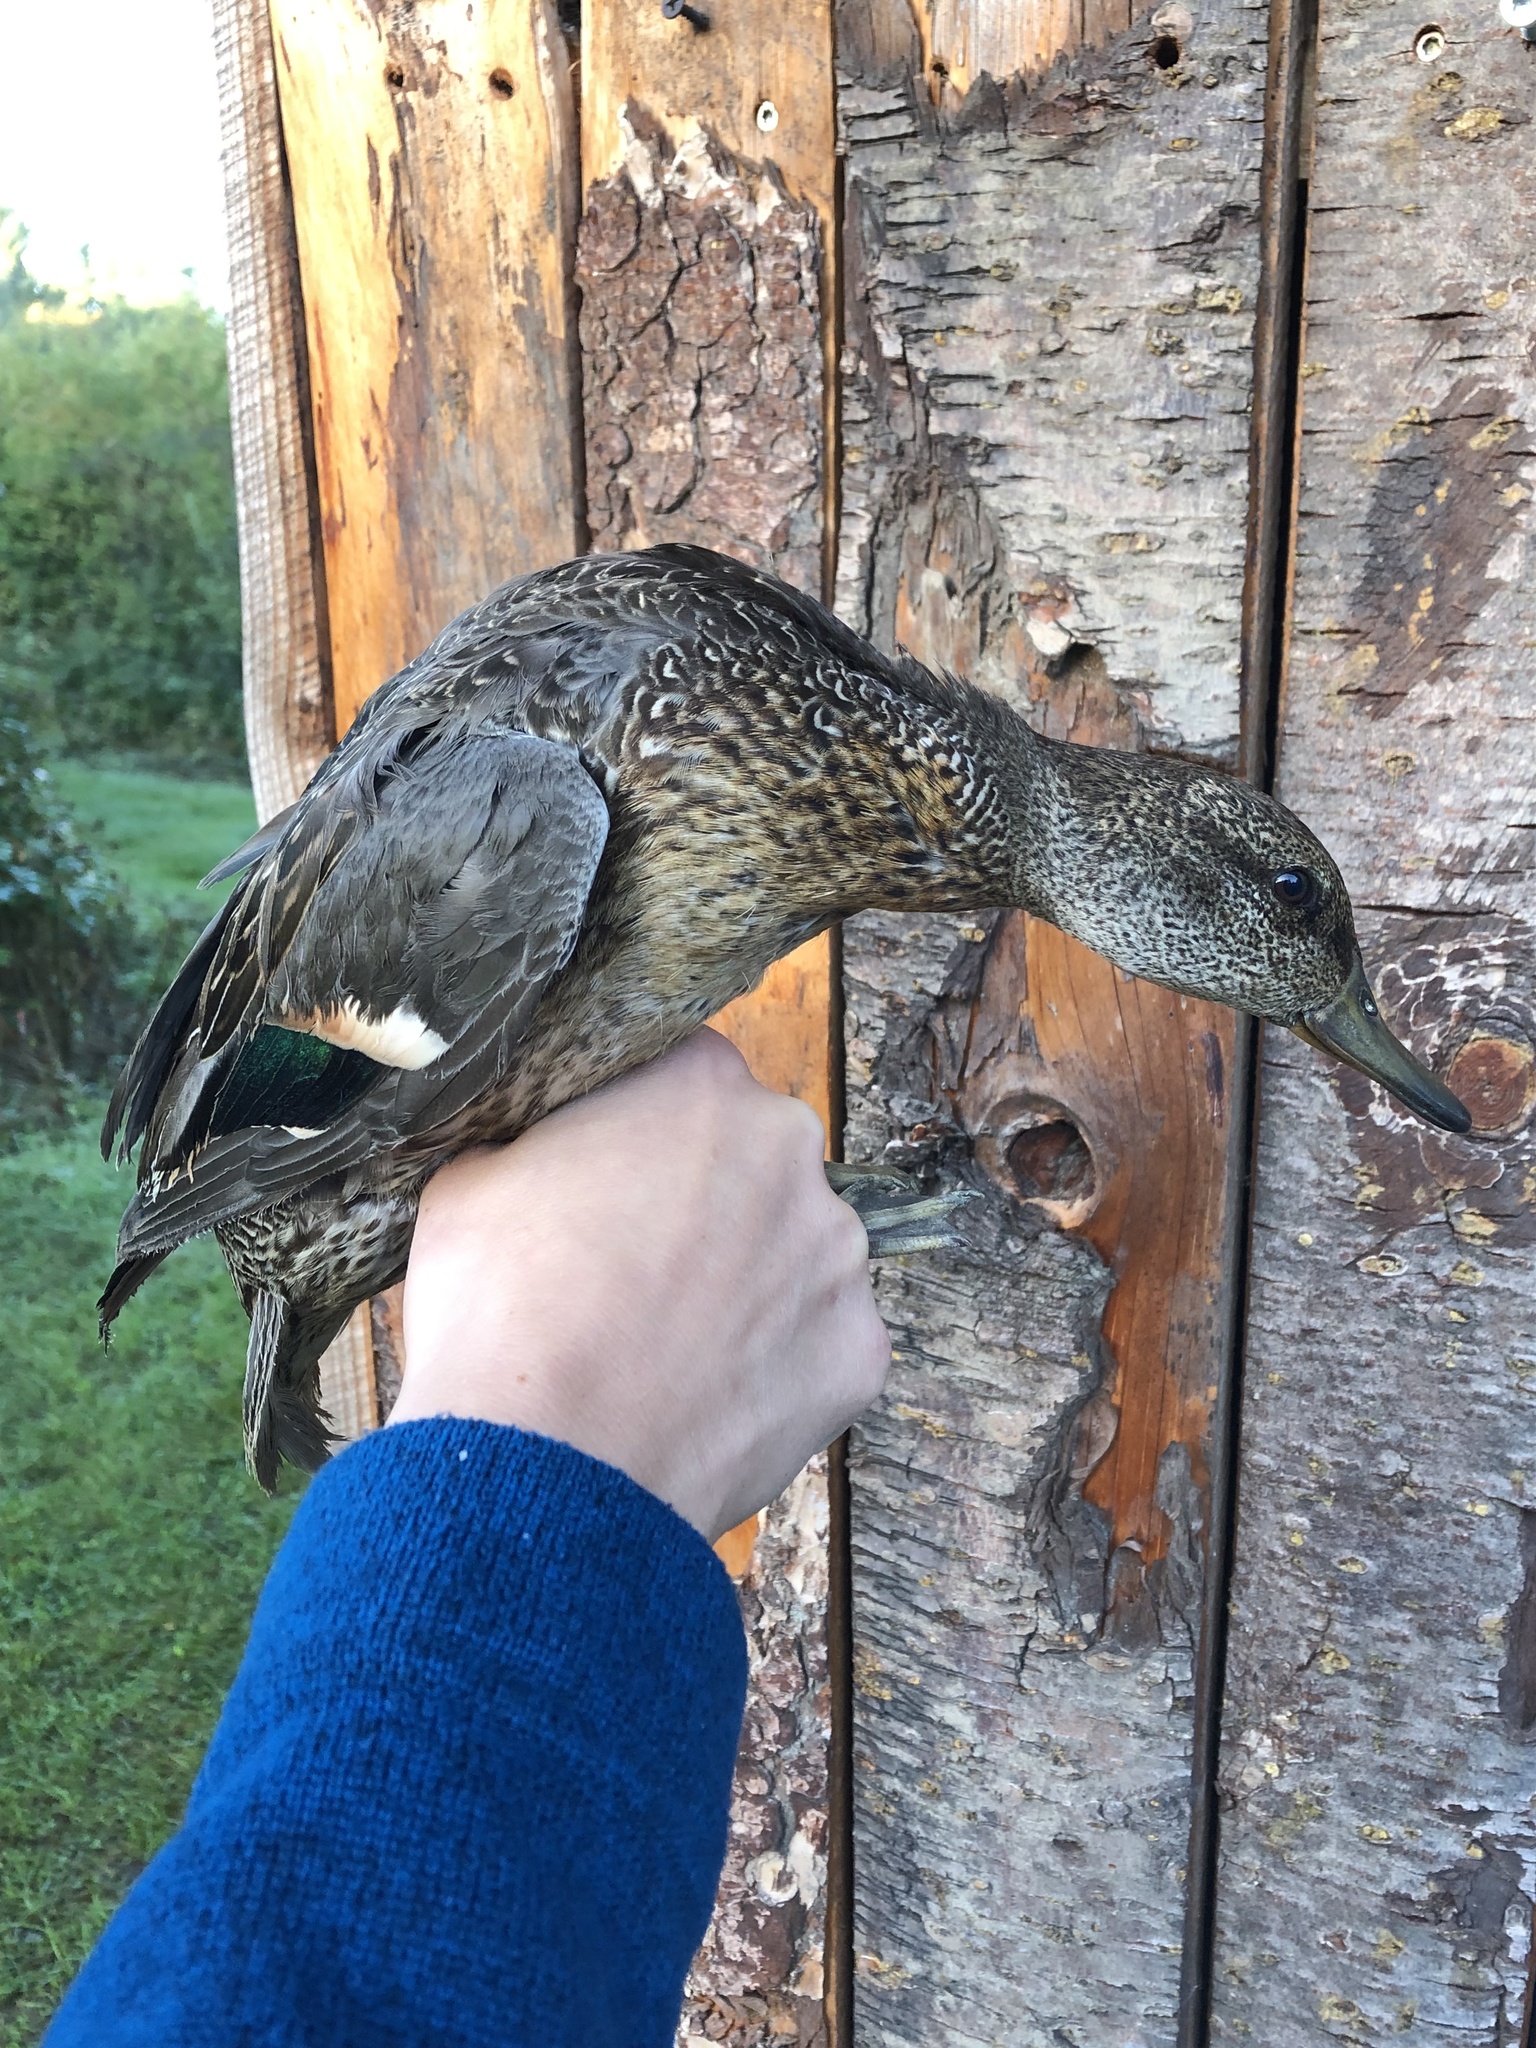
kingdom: Animalia
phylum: Chordata
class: Aves
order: Anseriformes
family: Anatidae
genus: Anas
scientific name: Anas crecca
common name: Eurasian teal
